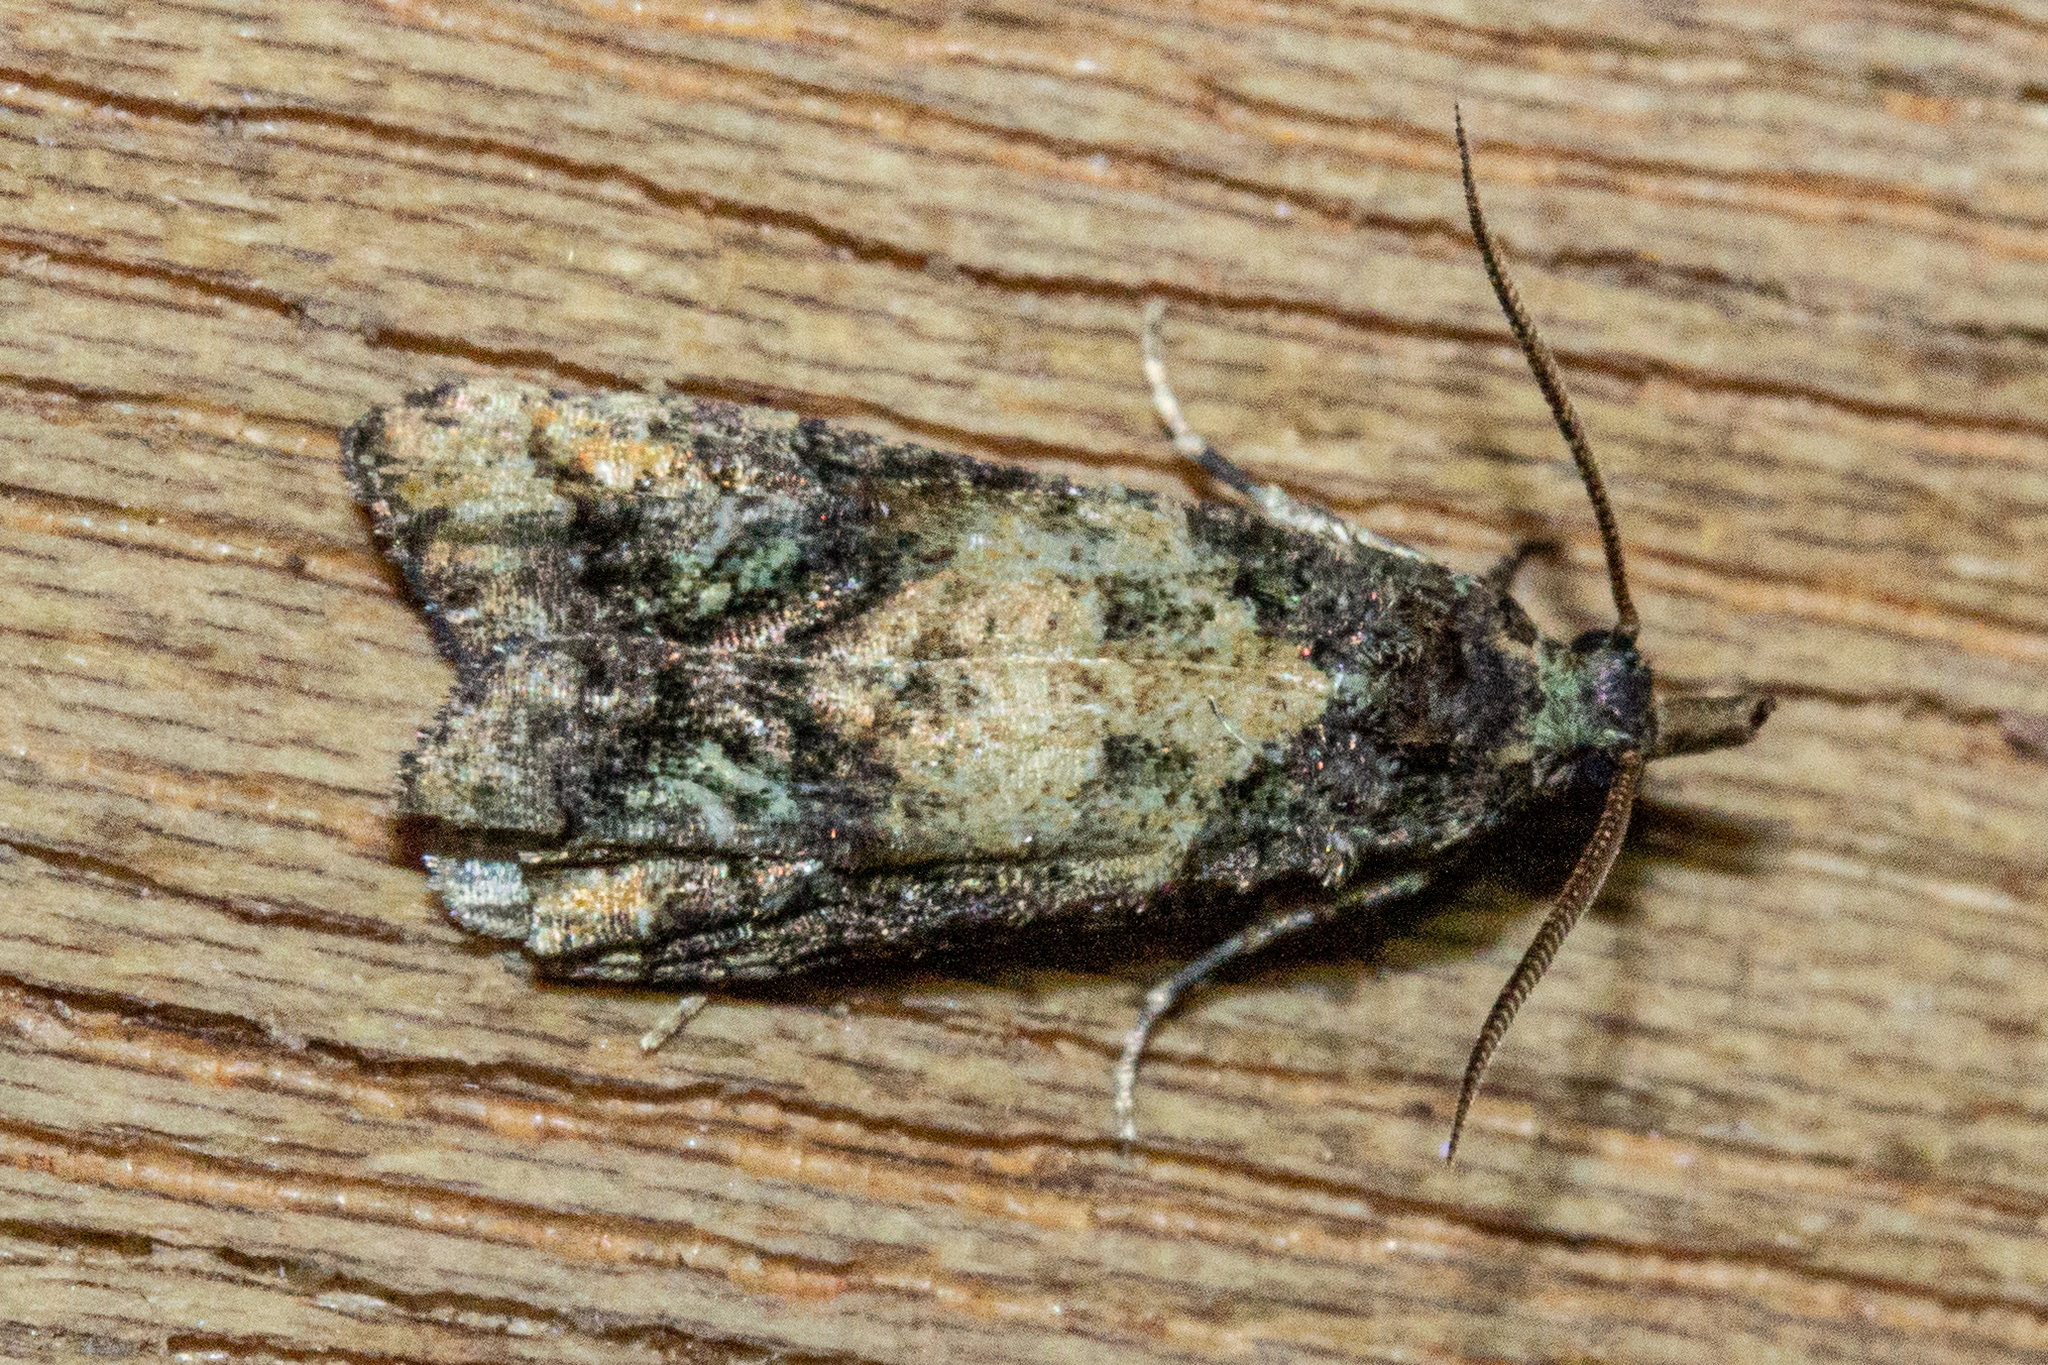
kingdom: Animalia
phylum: Arthropoda
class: Insecta
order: Lepidoptera
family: Copromorphidae
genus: Phycomorpha
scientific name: Phycomorpha metachrysa
